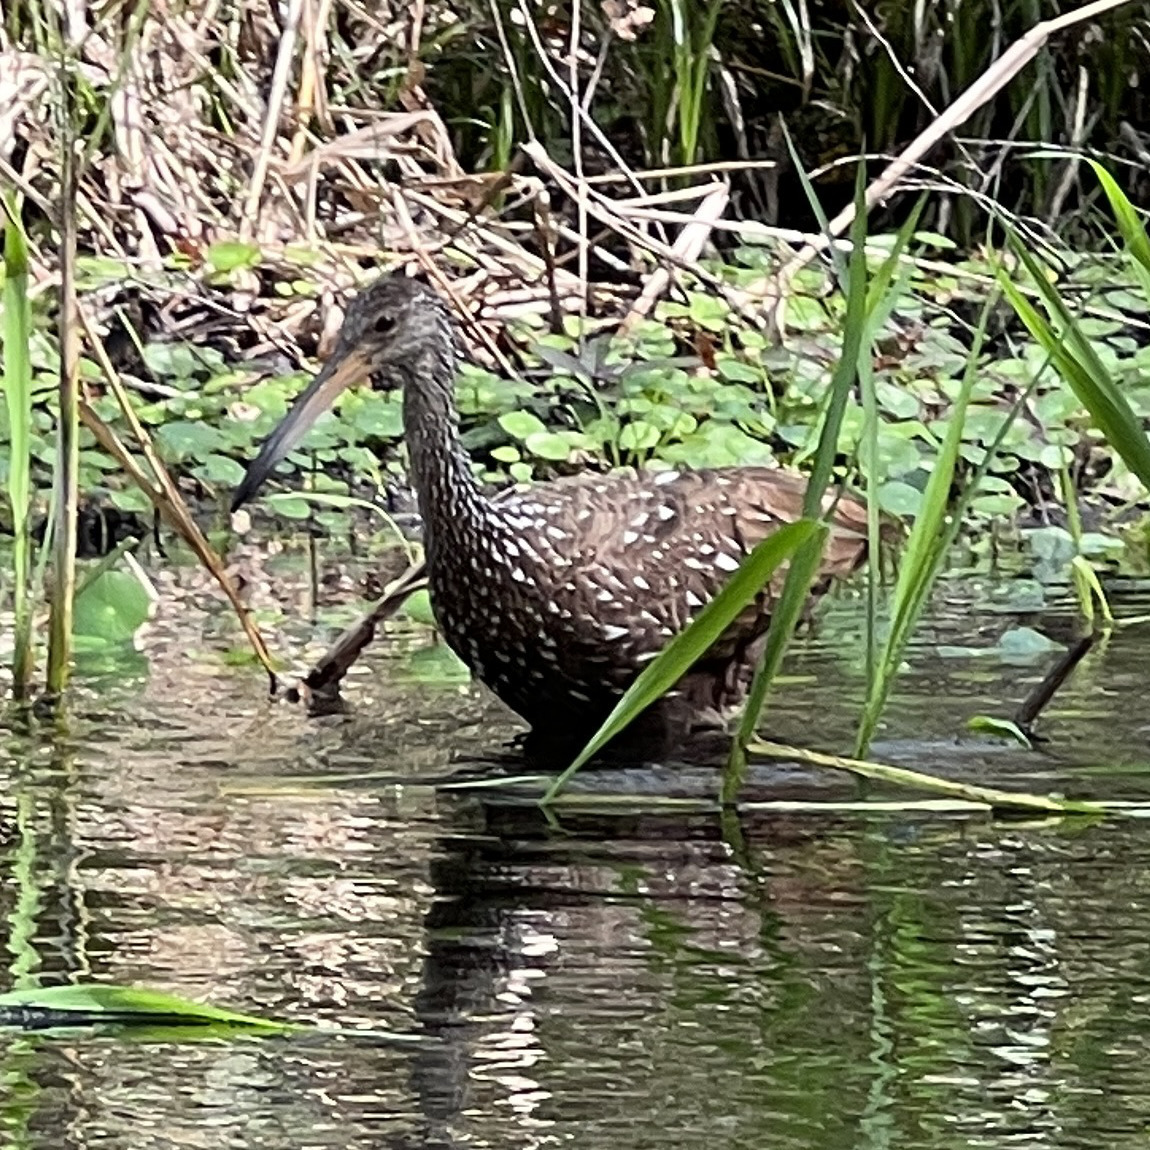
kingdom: Animalia
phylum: Chordata
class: Aves
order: Gruiformes
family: Aramidae
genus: Aramus
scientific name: Aramus guarauna
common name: Limpkin
